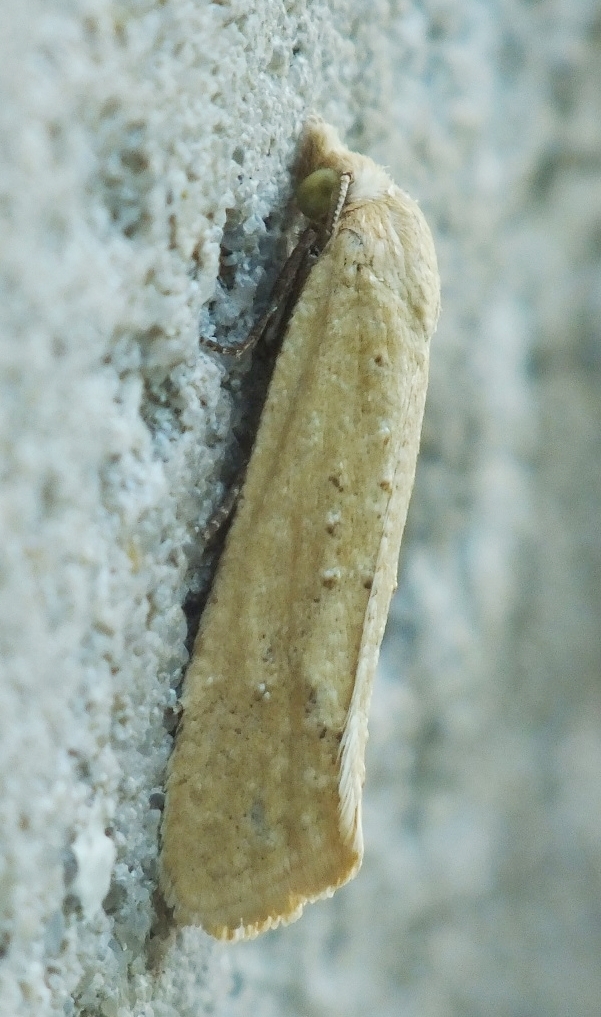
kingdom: Animalia
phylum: Arthropoda
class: Insecta
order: Lepidoptera
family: Tortricidae
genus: Cochylimorpha
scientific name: Cochylimorpha meridiana
